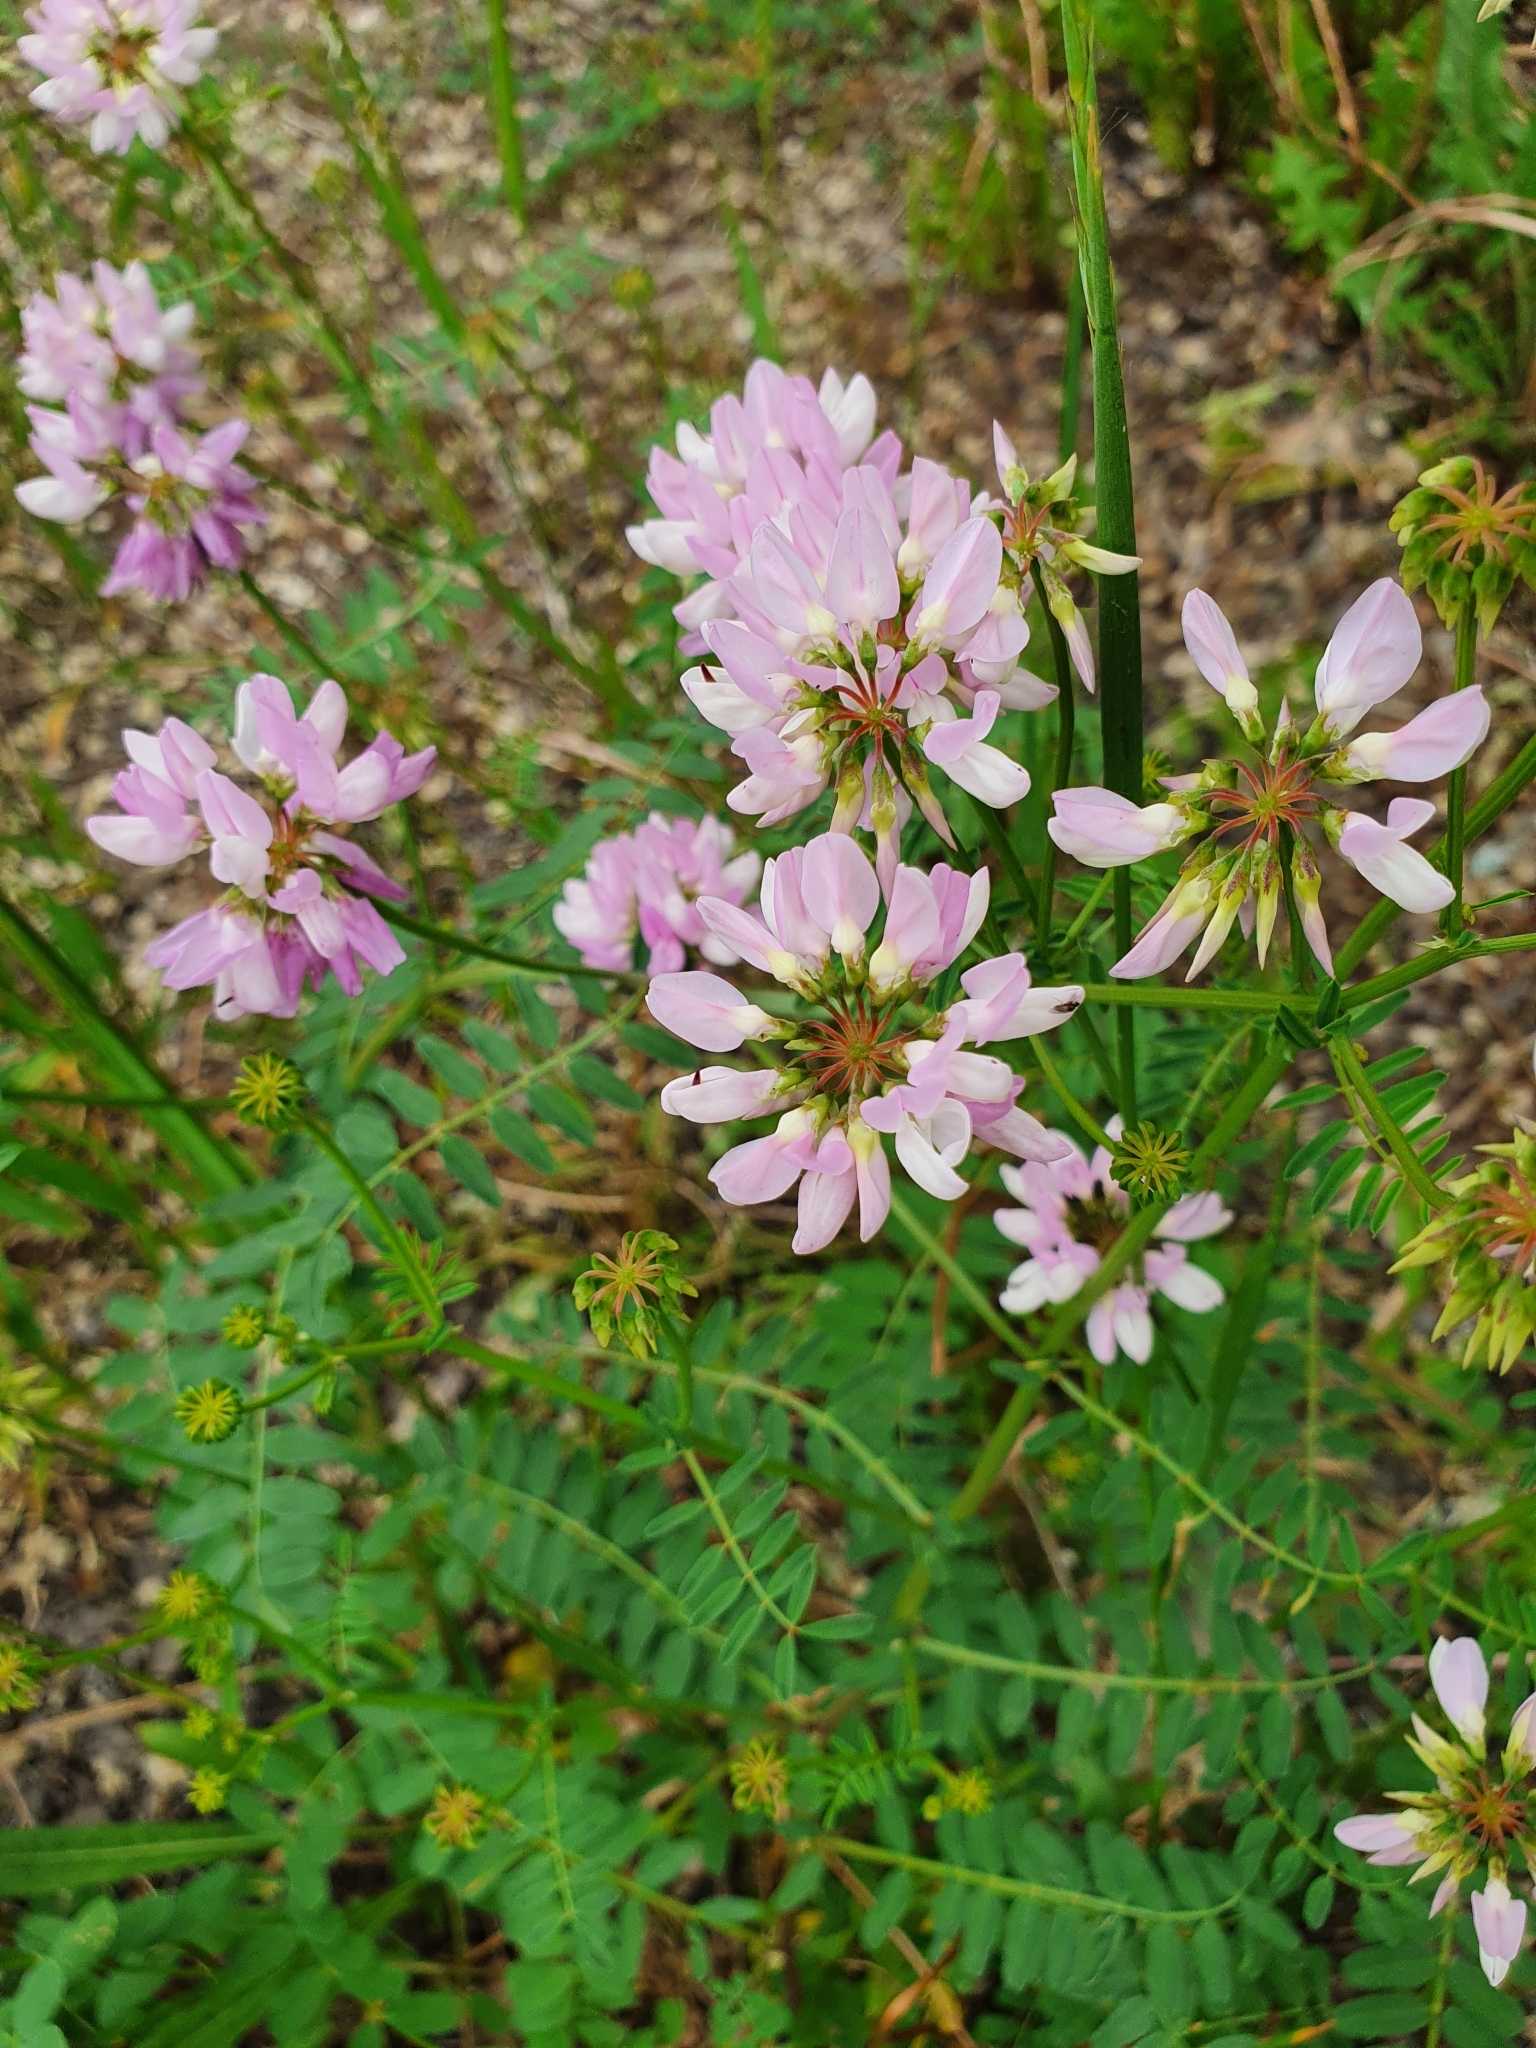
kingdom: Plantae
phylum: Tracheophyta
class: Magnoliopsida
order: Fabales
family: Fabaceae
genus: Coronilla
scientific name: Coronilla varia
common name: Crownvetch
